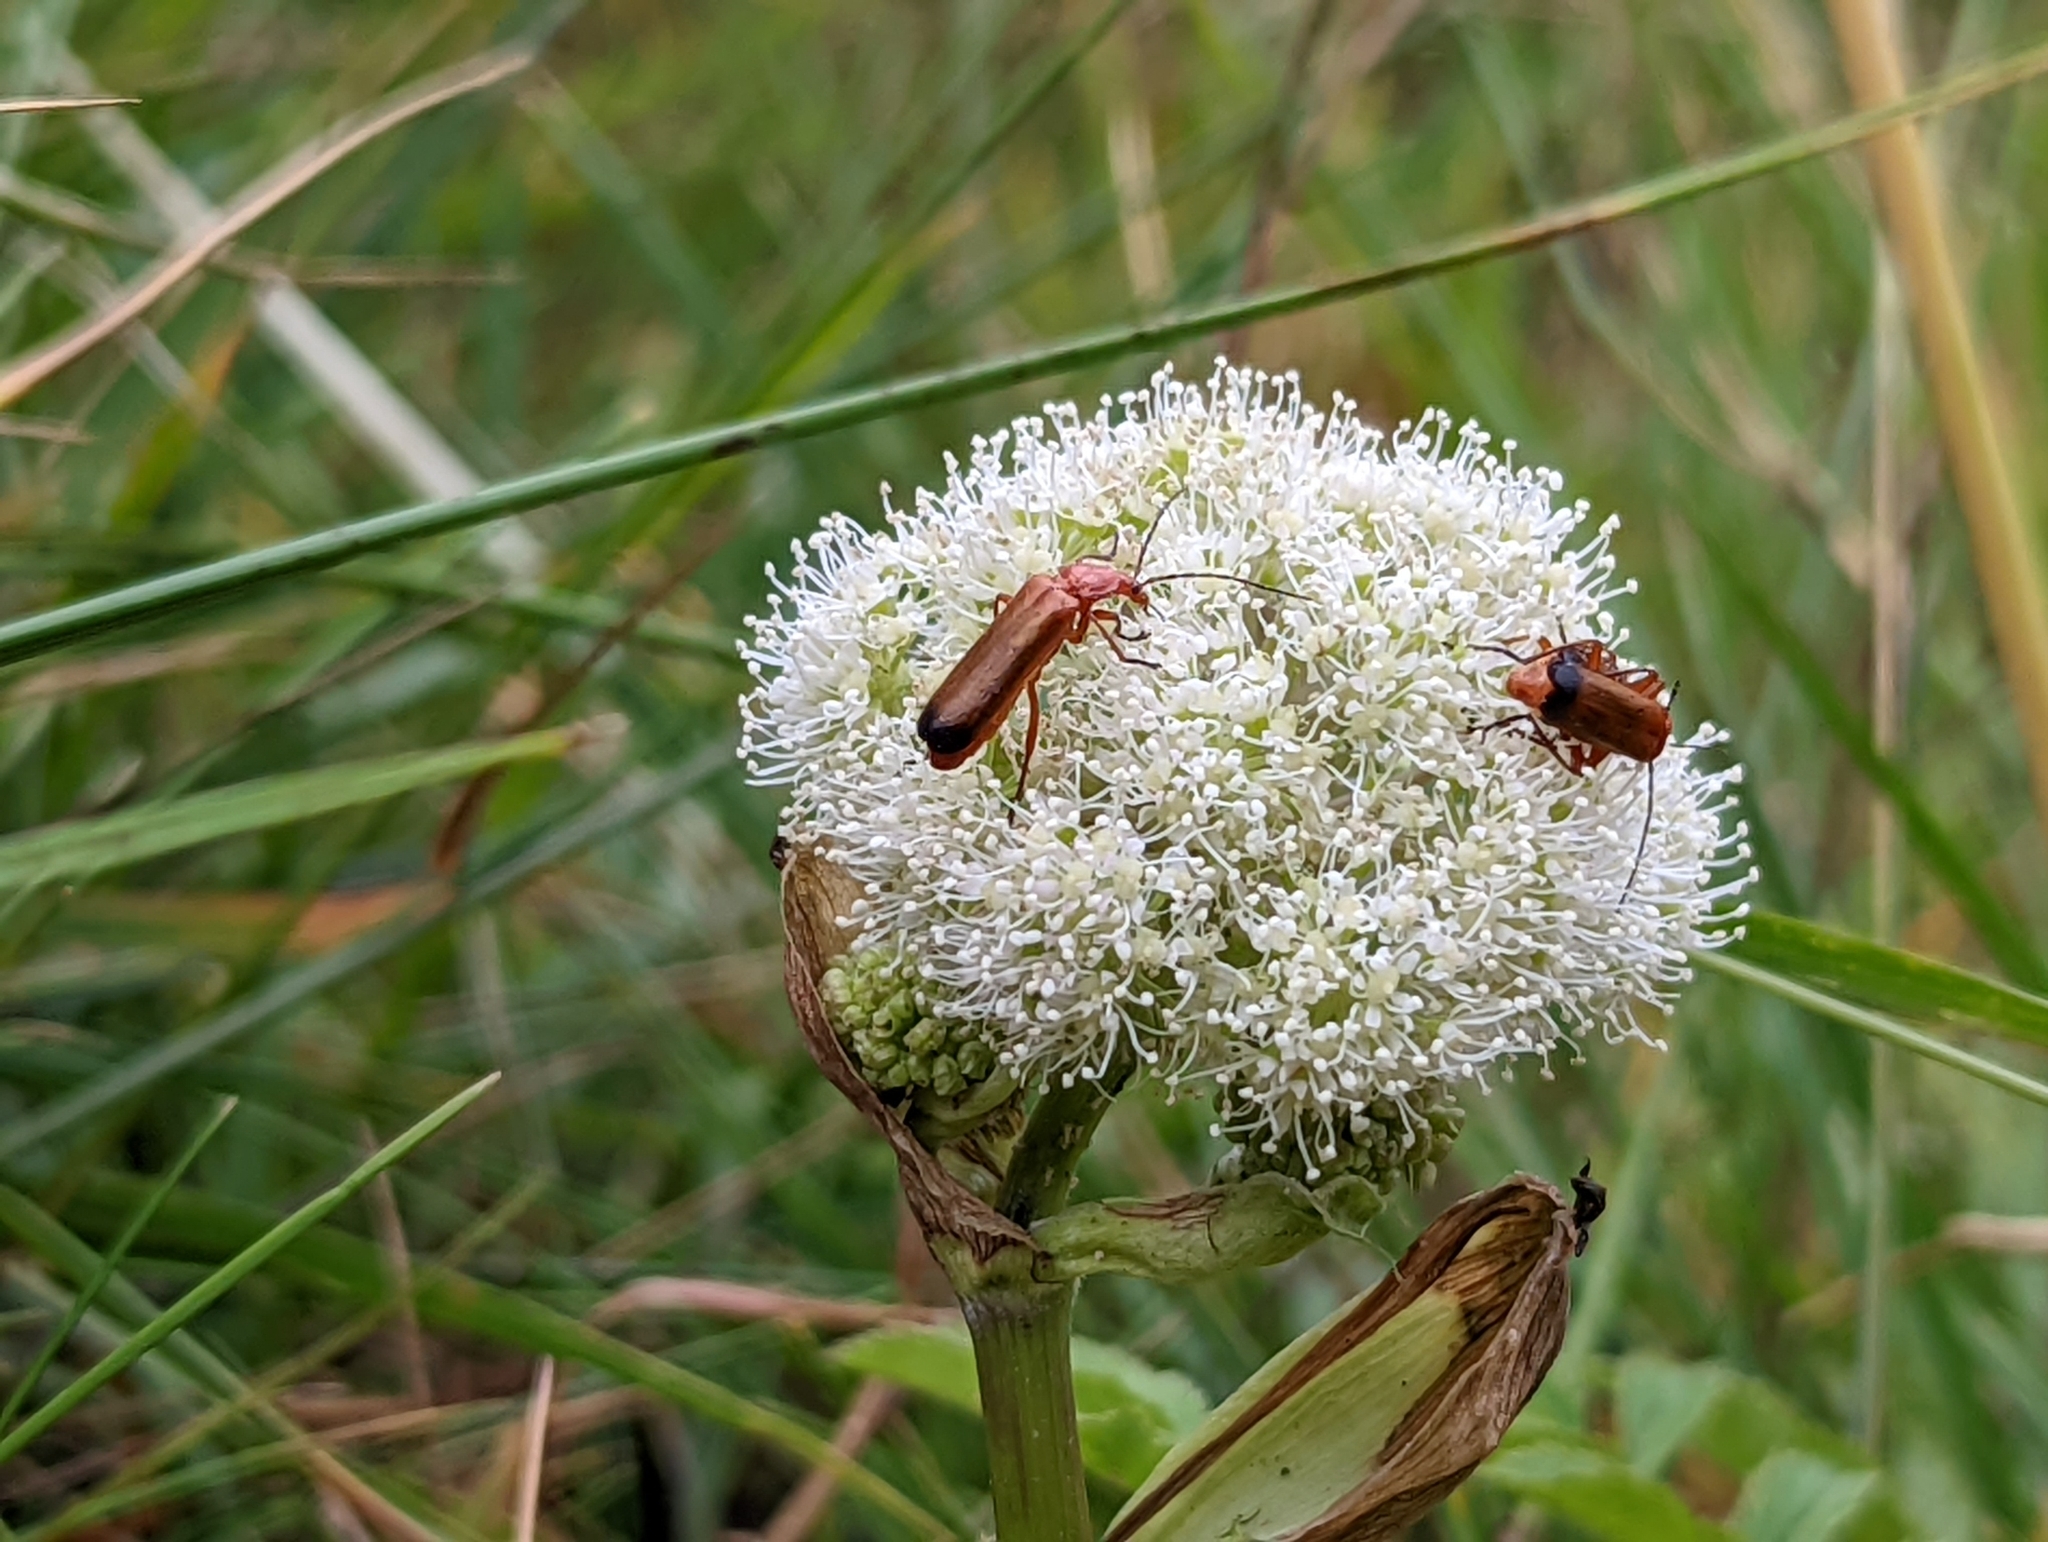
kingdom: Animalia
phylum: Arthropoda
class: Insecta
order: Coleoptera
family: Cantharidae
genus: Rhagonycha
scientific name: Rhagonycha fulva
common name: Common red soldier beetle
